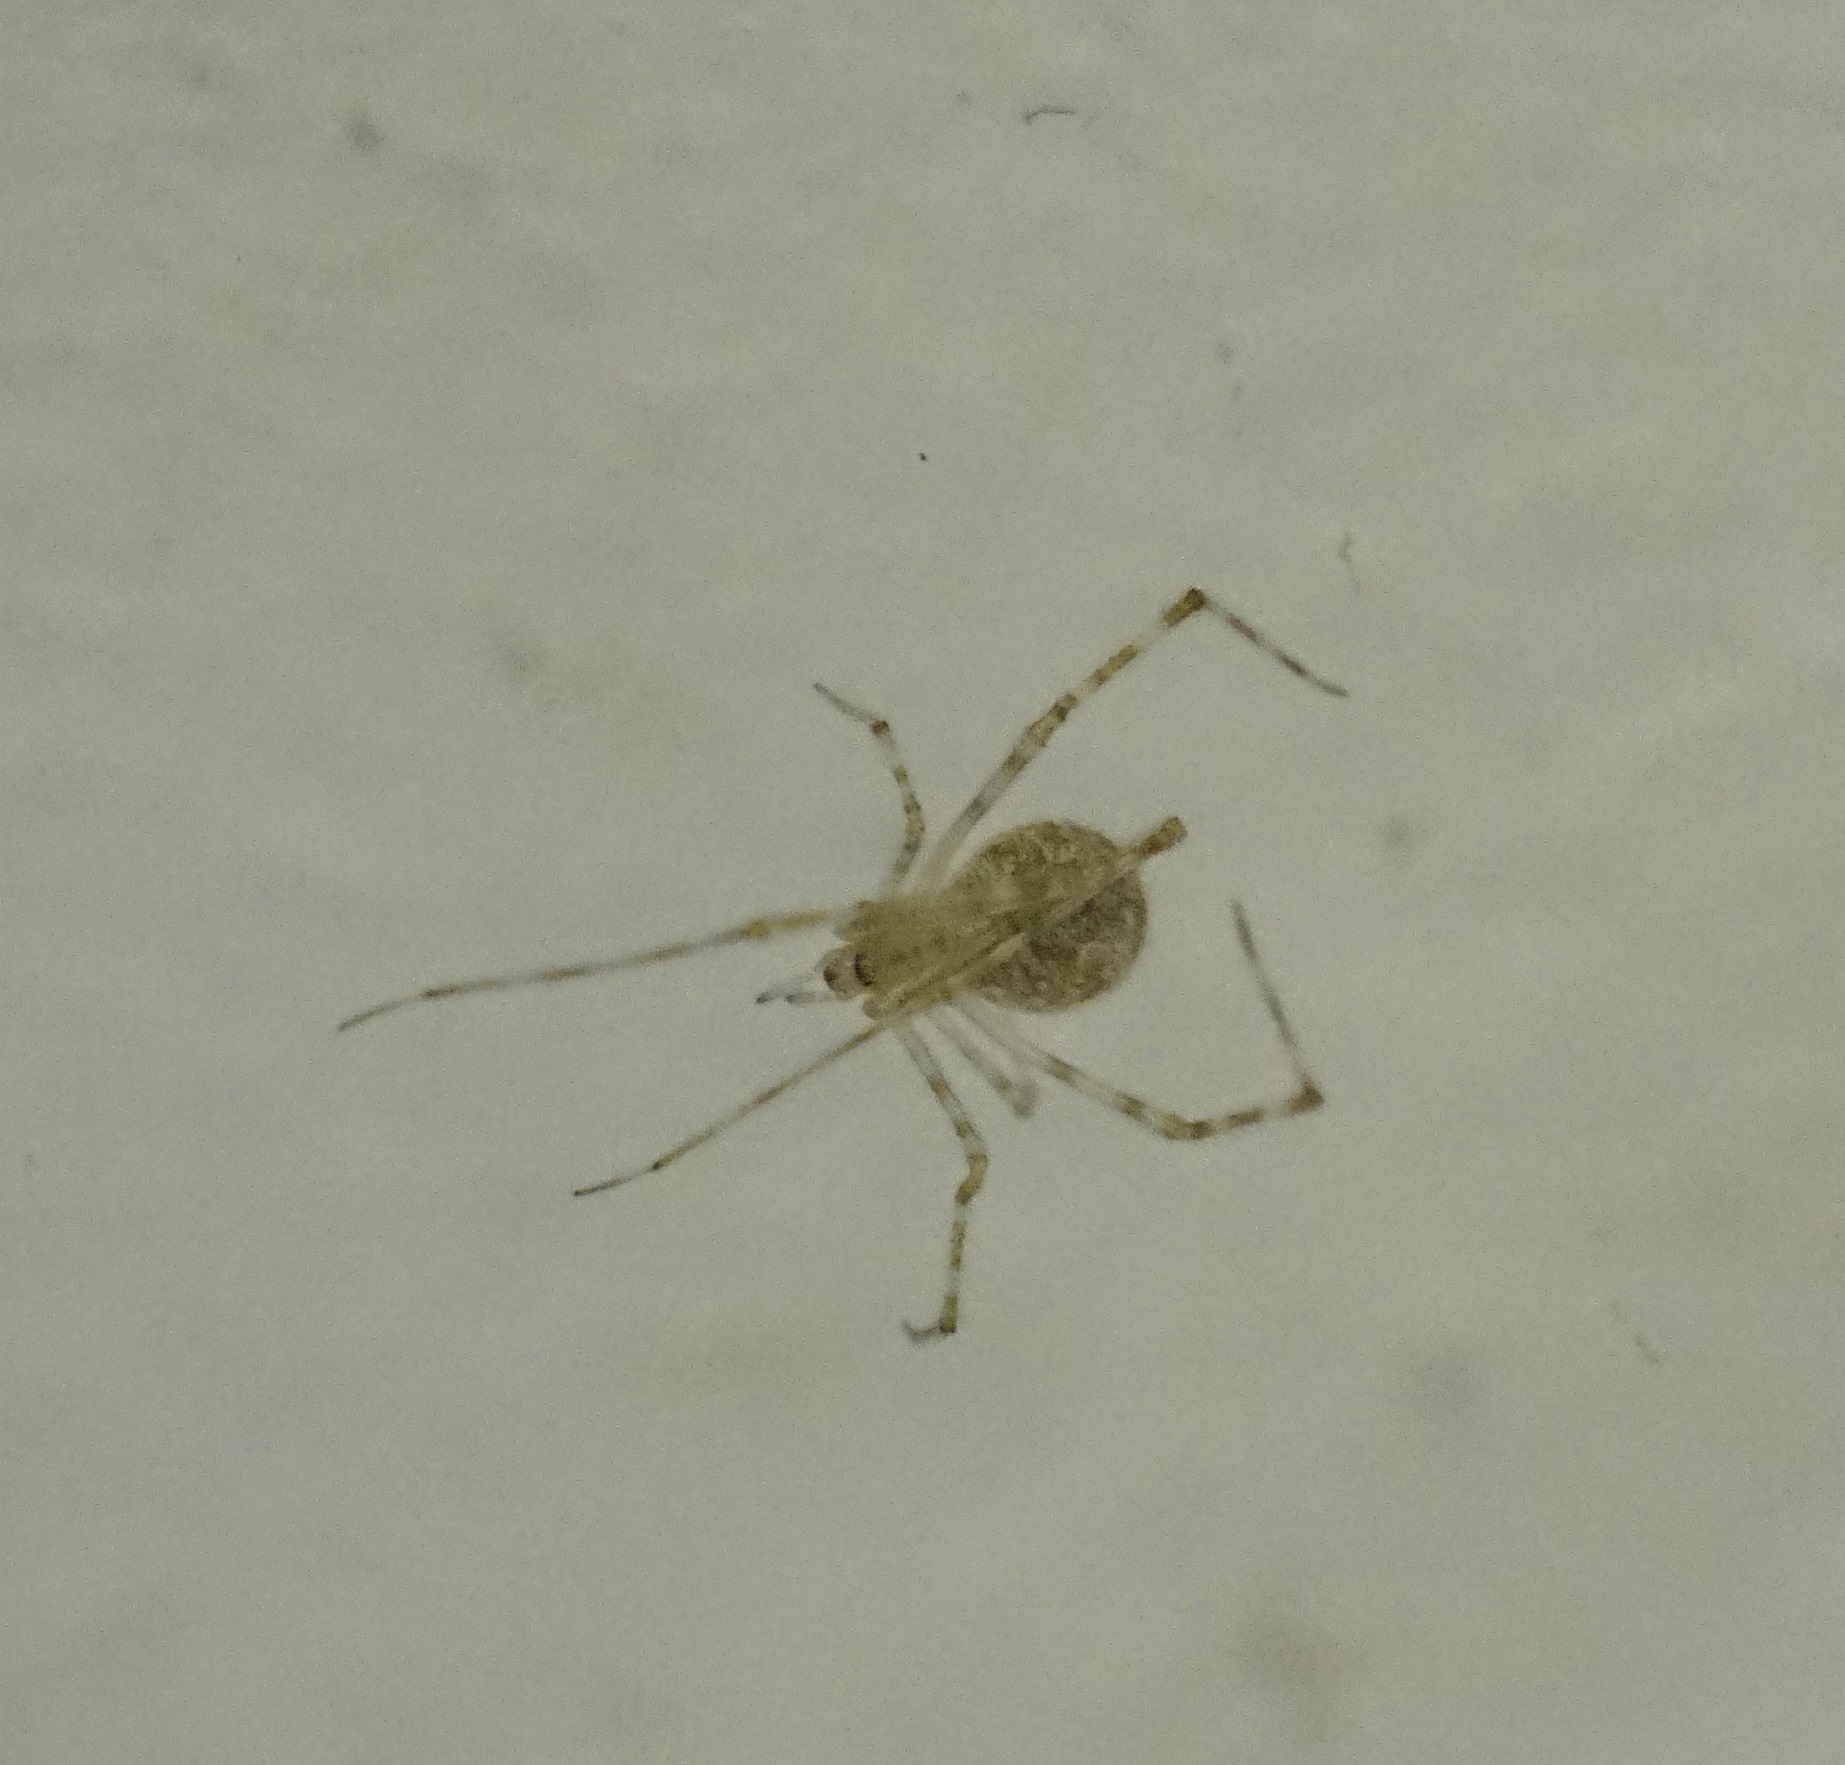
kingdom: Animalia
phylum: Arthropoda
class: Arachnida
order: Araneae
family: Theridiidae
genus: Cryptachaea
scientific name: Cryptachaea gigantipes
